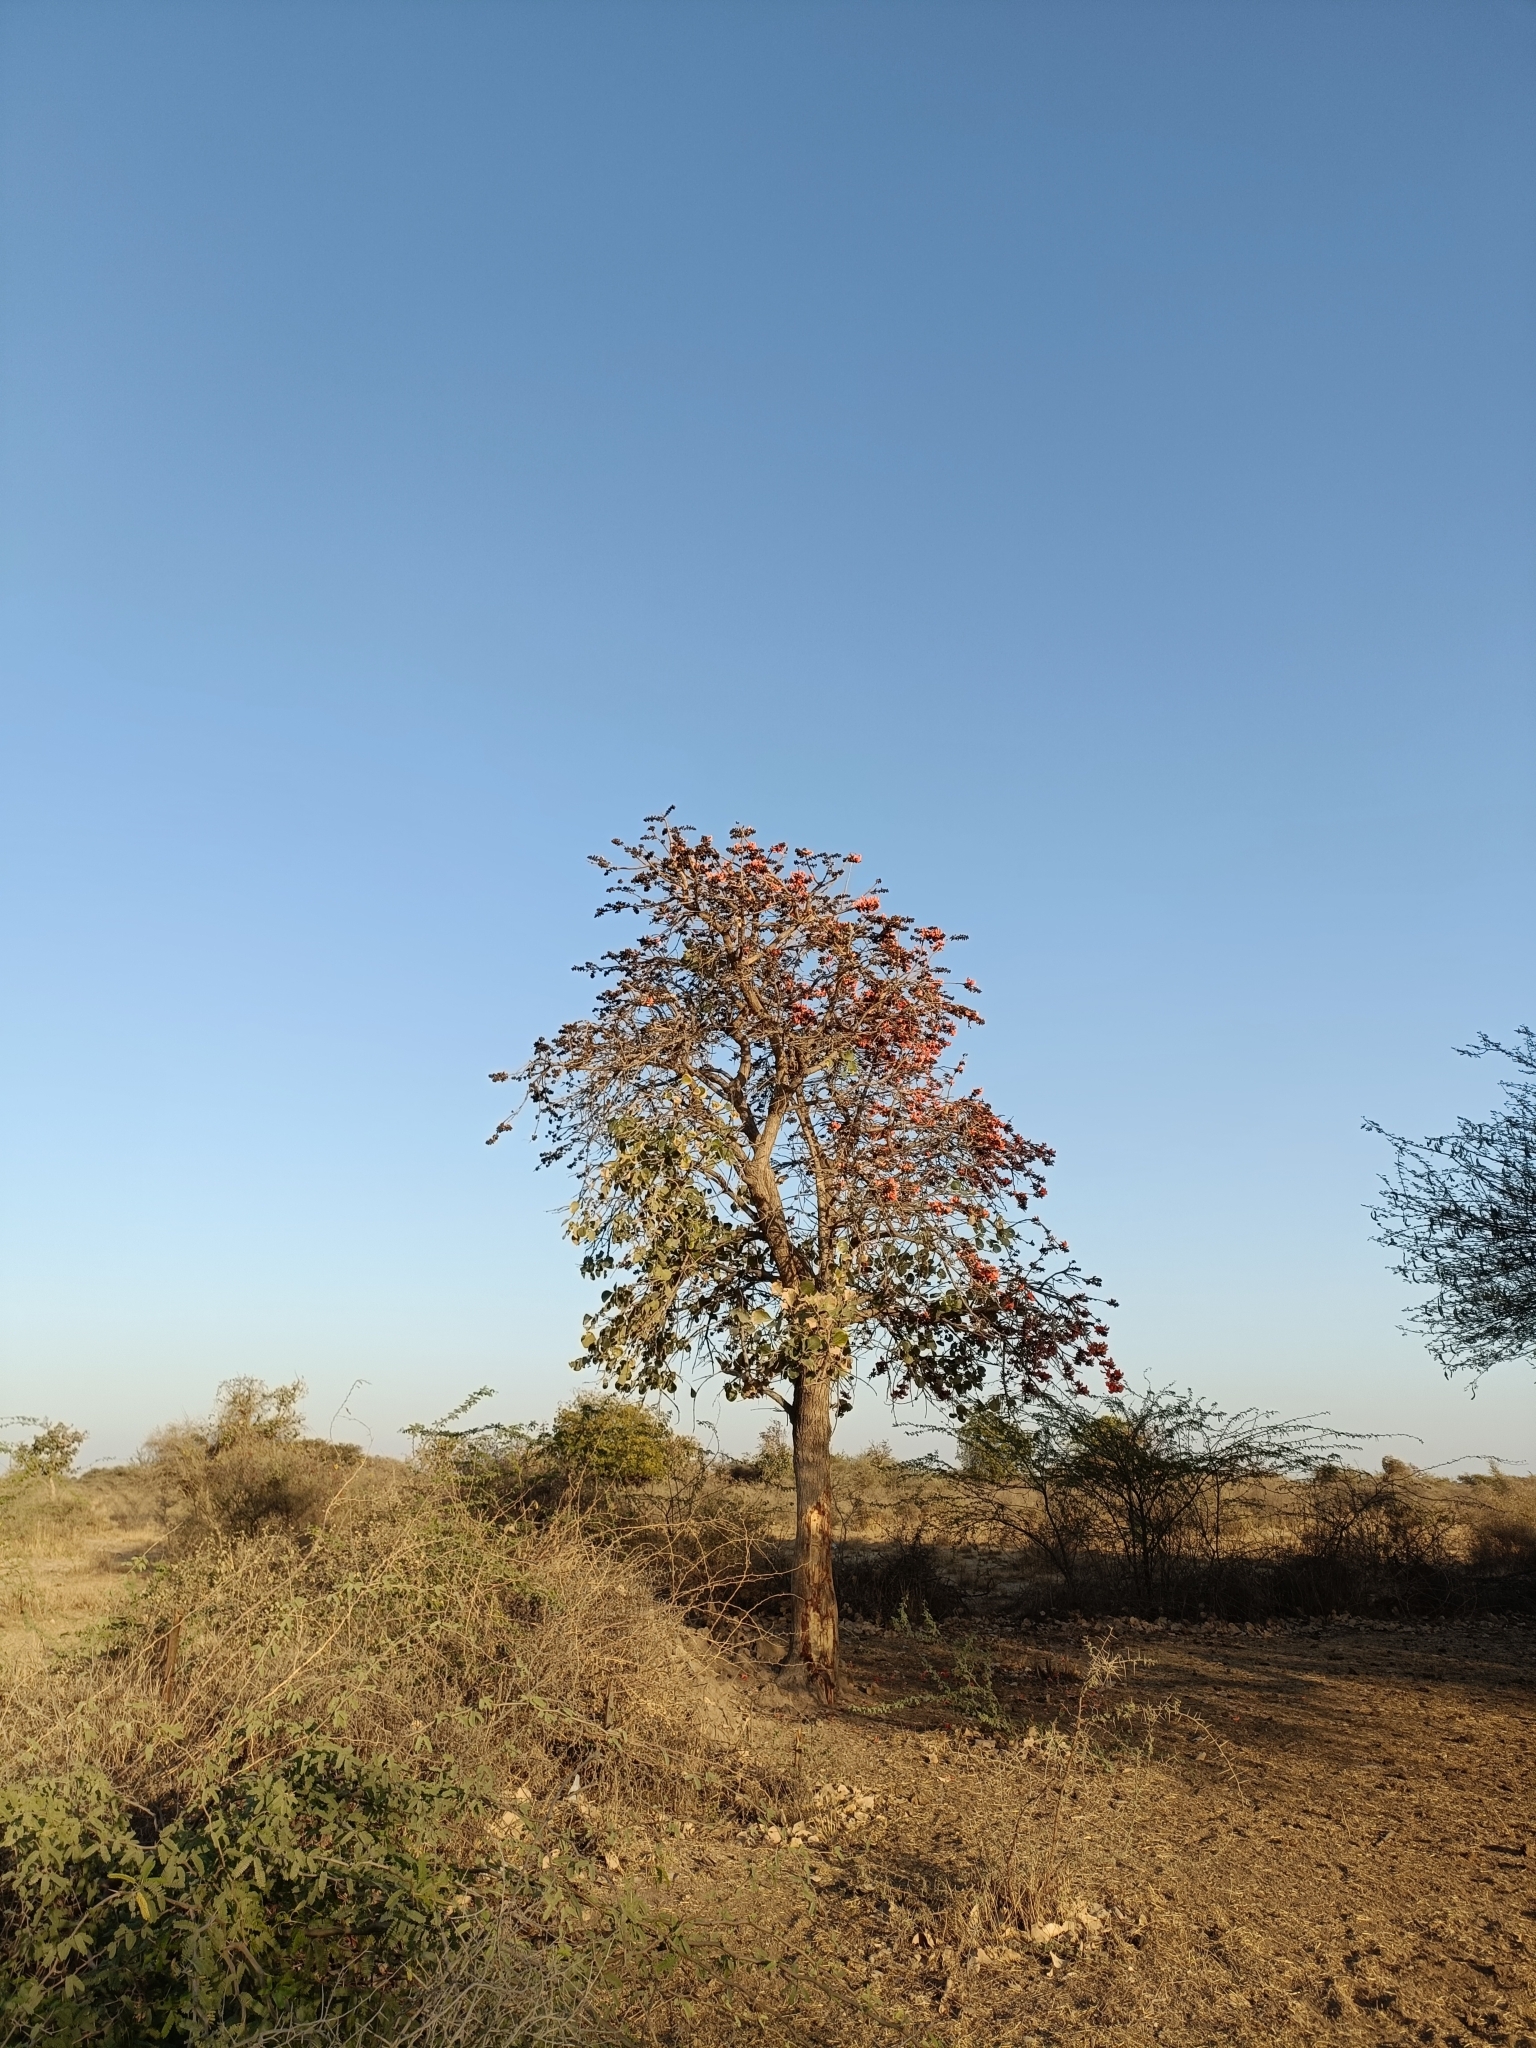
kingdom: Plantae
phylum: Tracheophyta
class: Magnoliopsida
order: Fabales
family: Fabaceae
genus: Butea
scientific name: Butea monosperma
